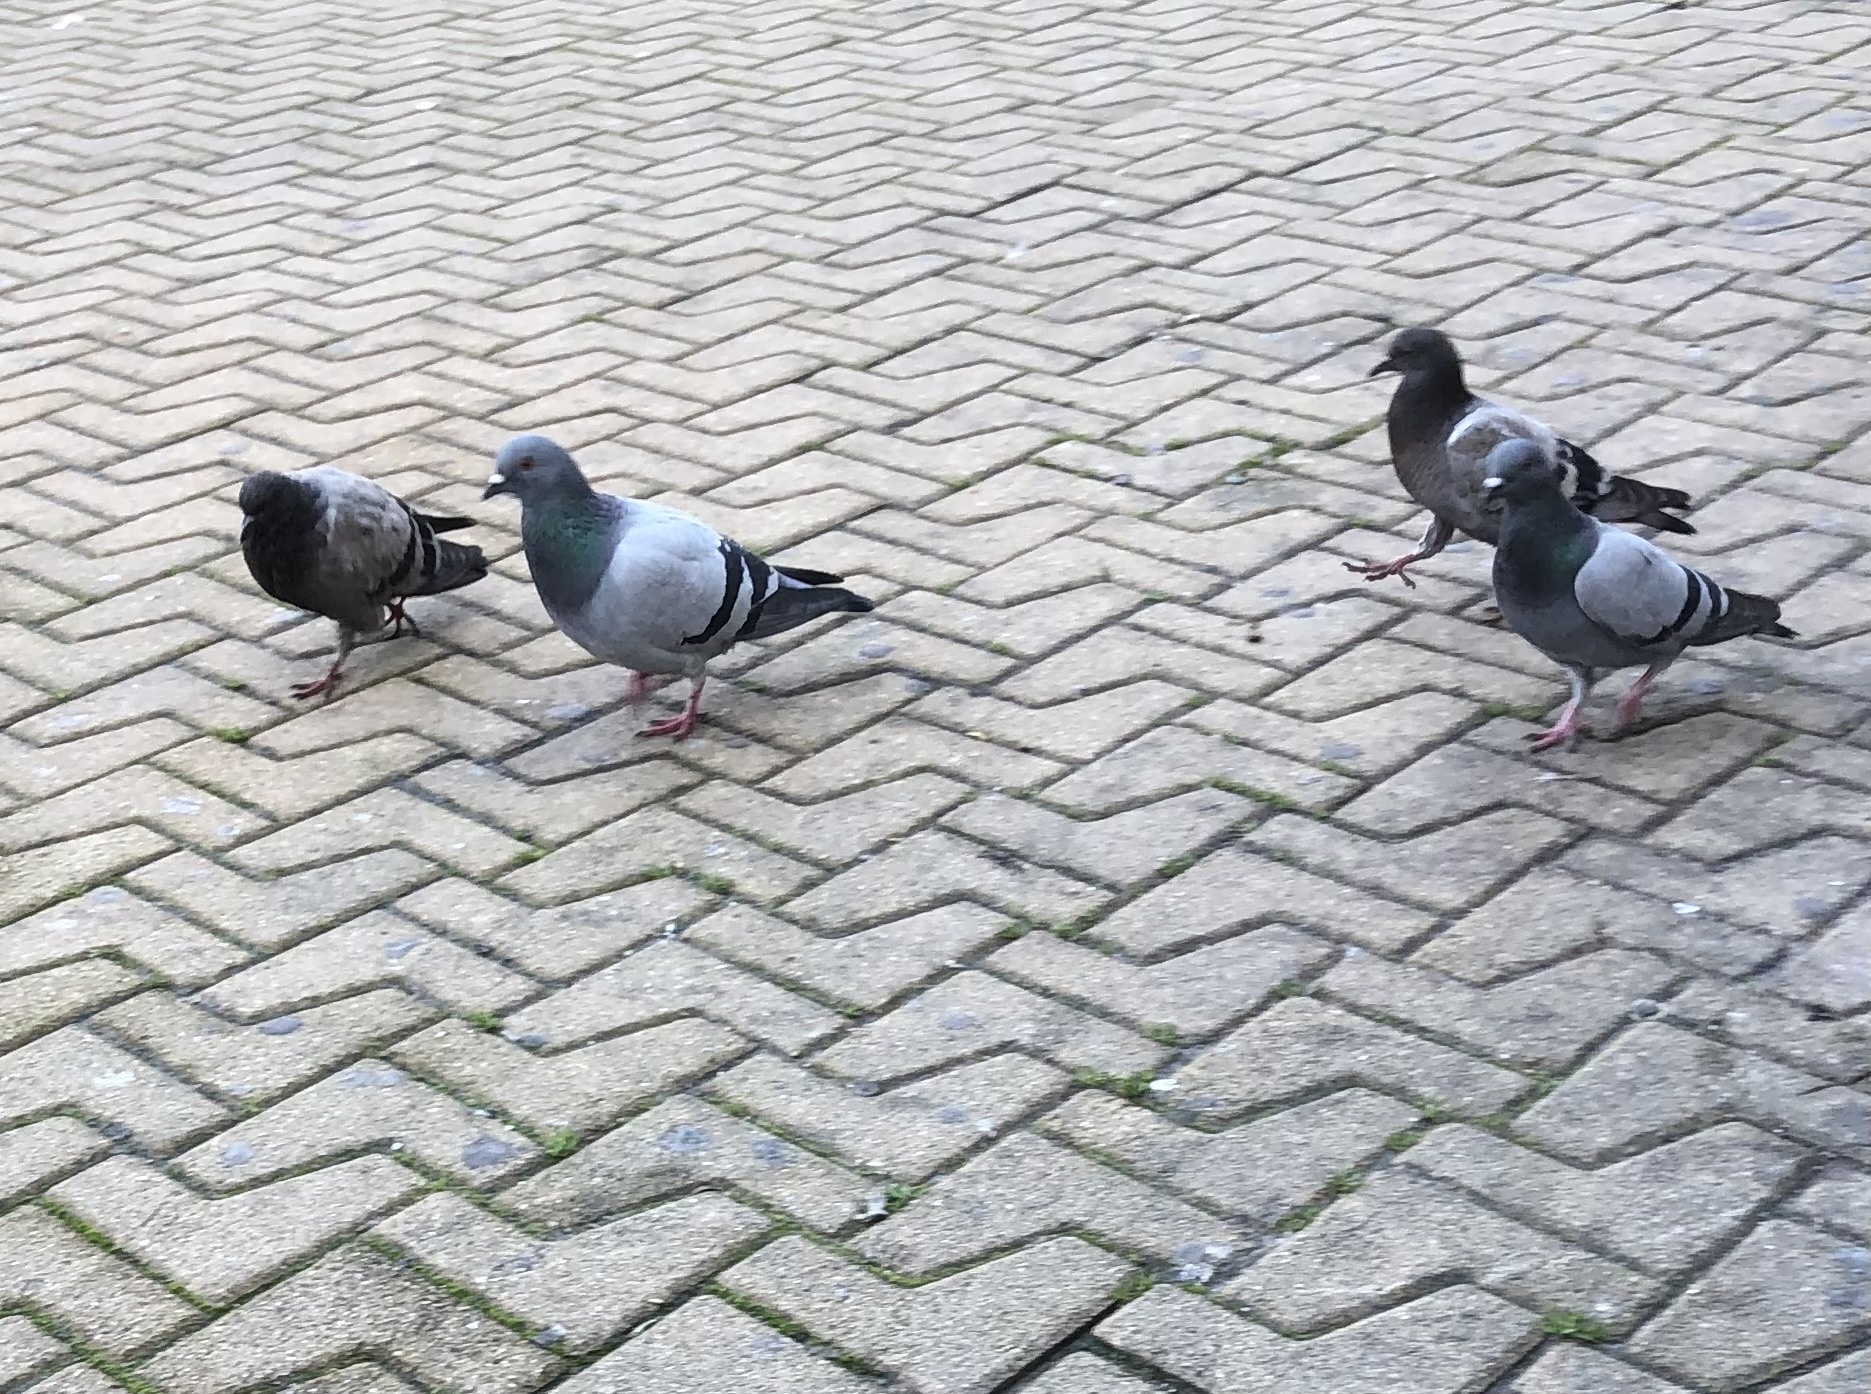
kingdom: Animalia
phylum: Chordata
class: Aves
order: Columbiformes
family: Columbidae
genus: Columba
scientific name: Columba livia
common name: Rock pigeon
